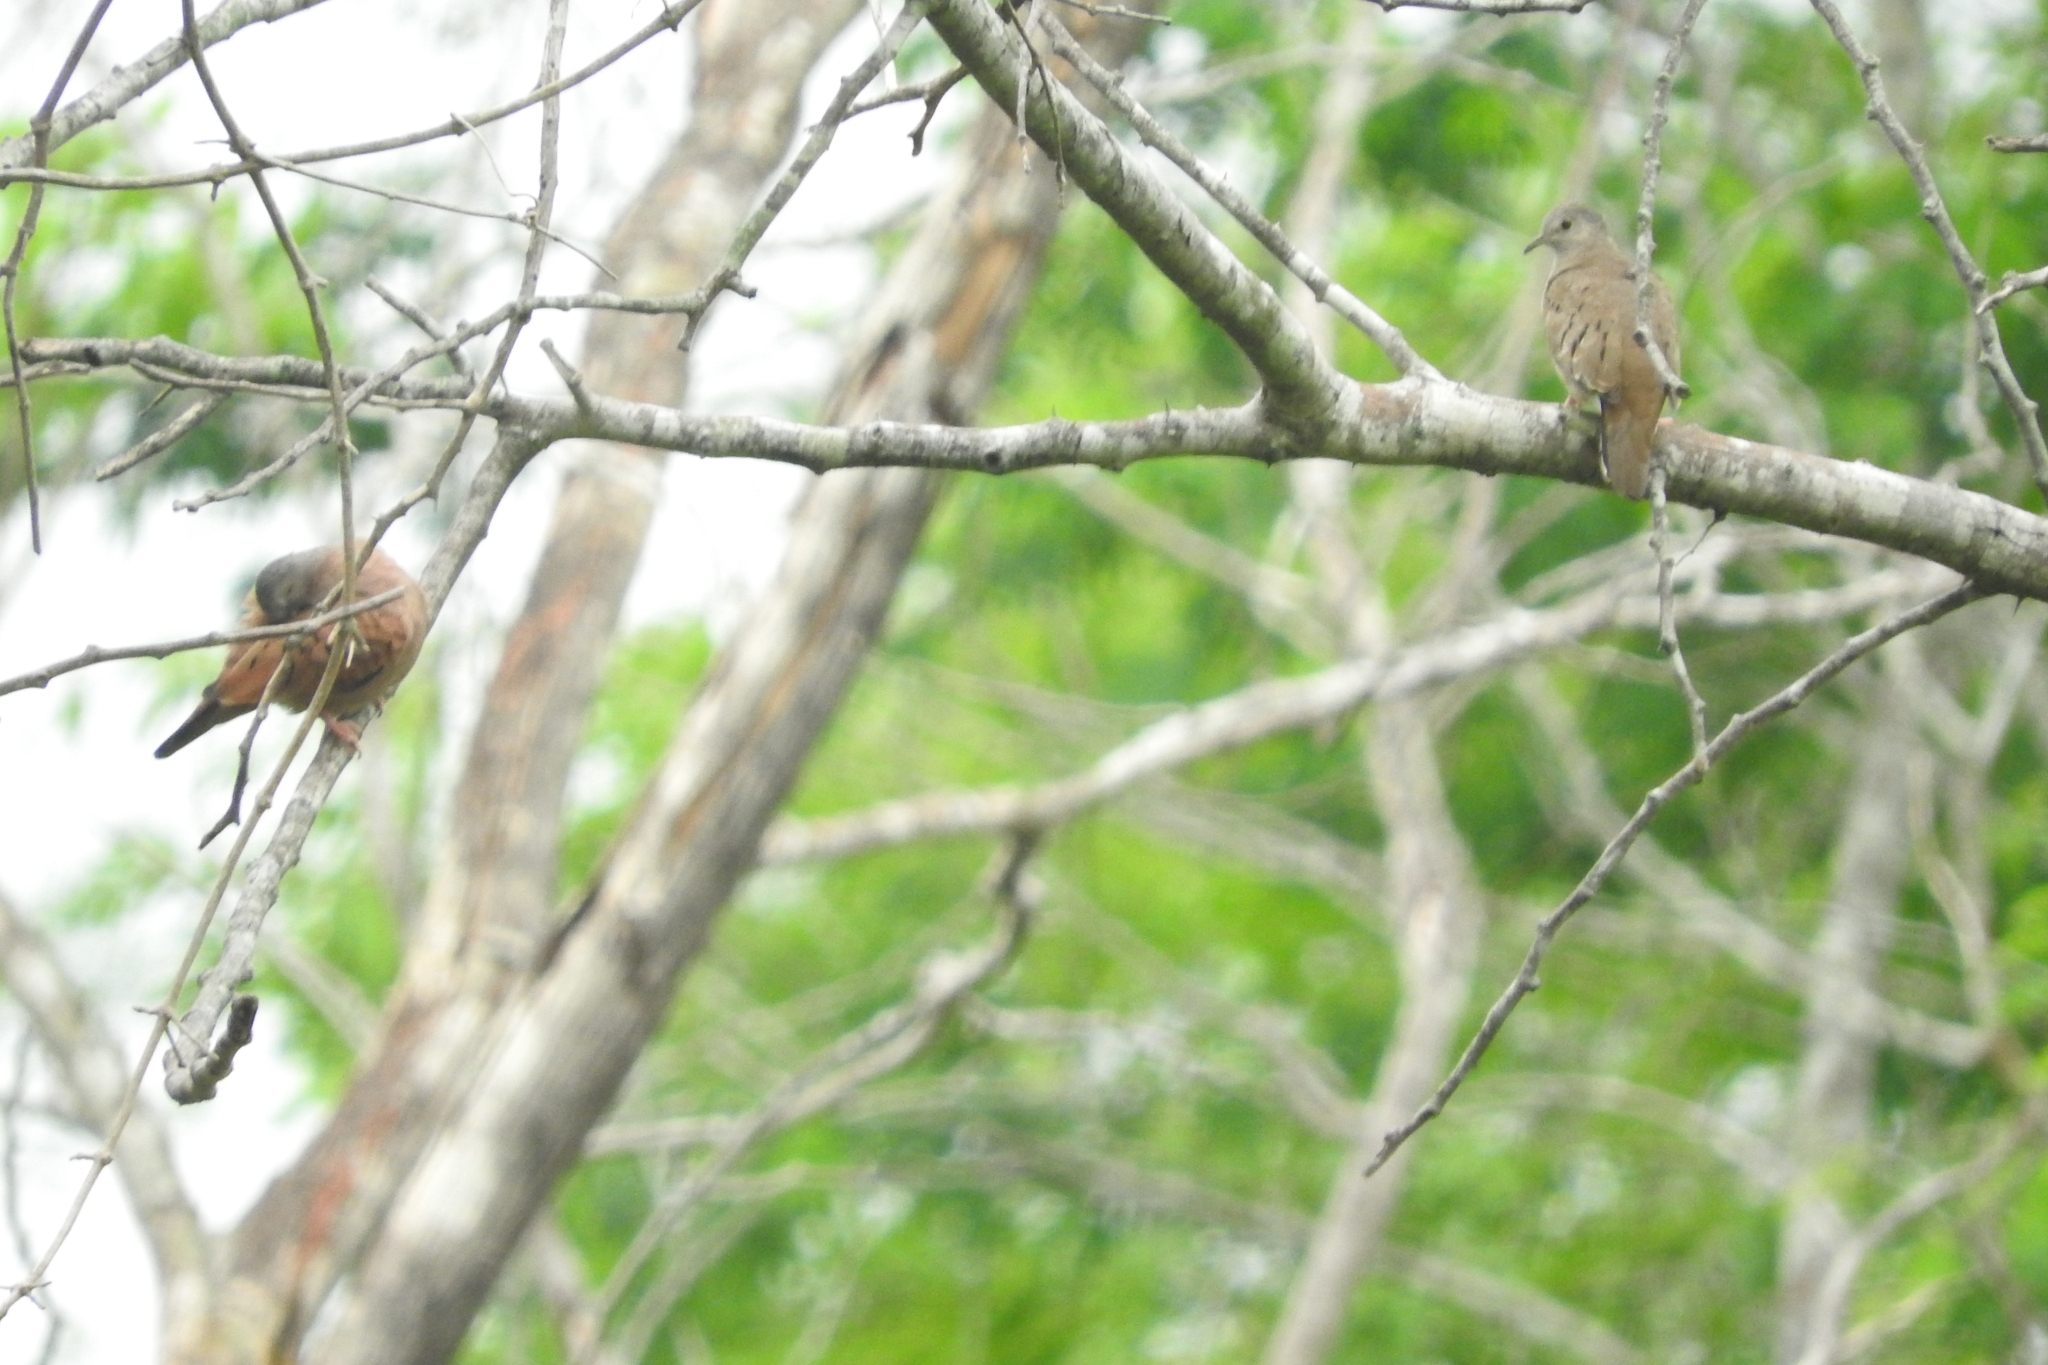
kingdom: Animalia
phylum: Chordata
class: Aves
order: Columbiformes
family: Columbidae
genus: Columbina
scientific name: Columbina talpacoti
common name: Ruddy ground dove
